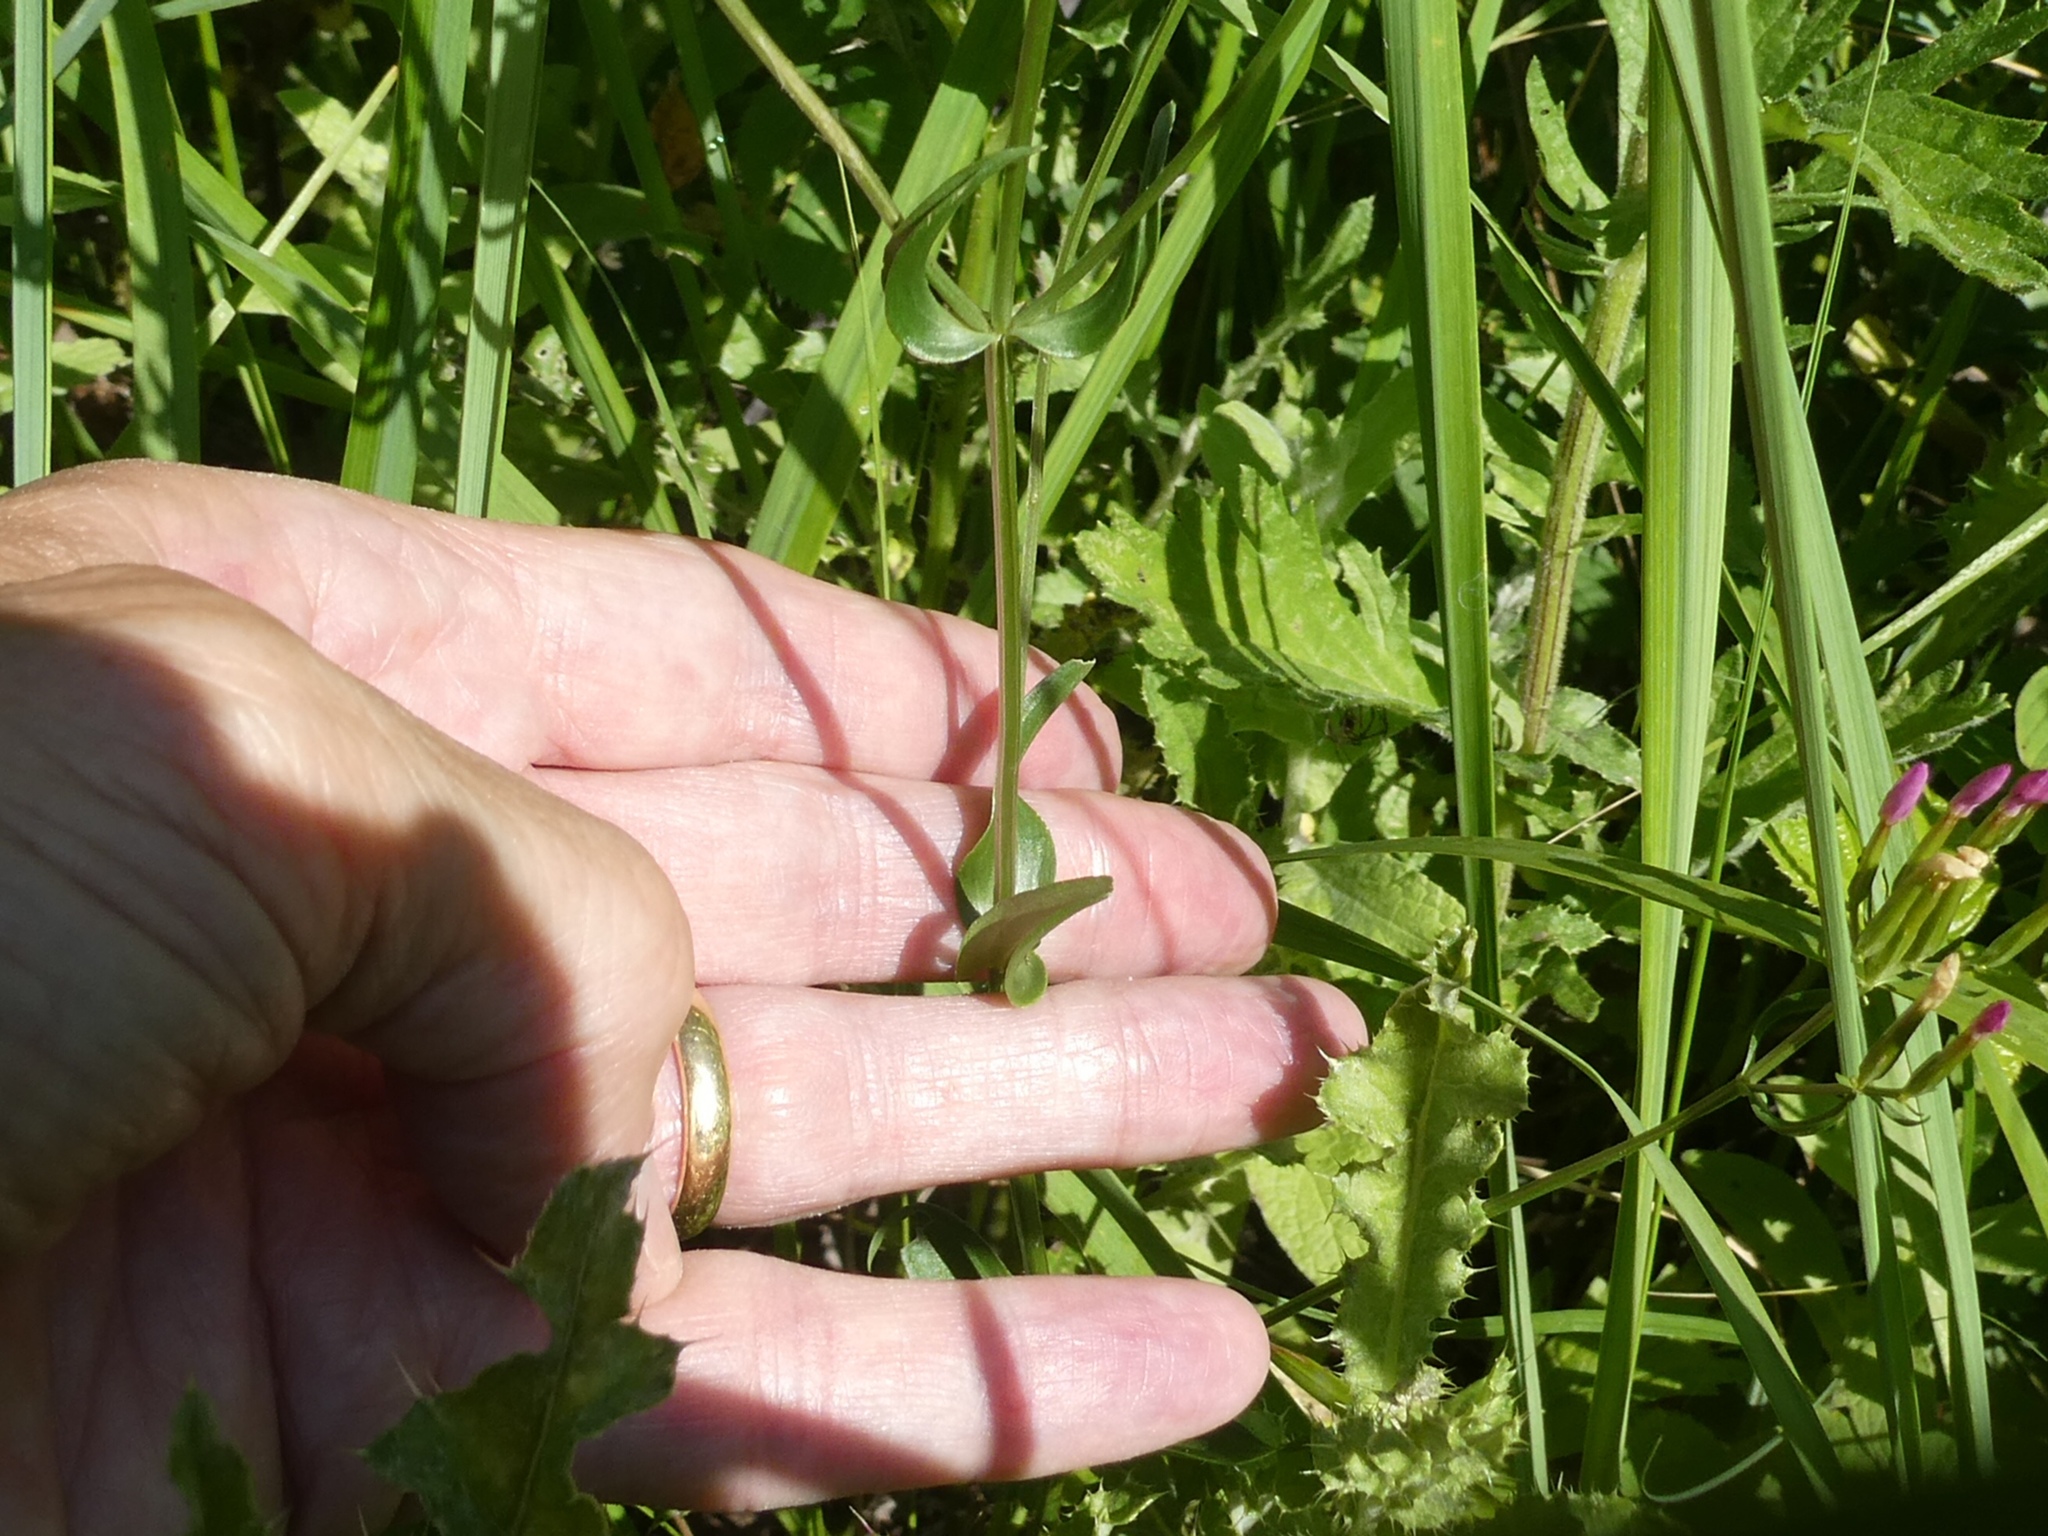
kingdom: Plantae
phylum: Tracheophyta
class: Magnoliopsida
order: Gentianales
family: Gentianaceae
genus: Centaurium
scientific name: Centaurium erythraea
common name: Common centaury
